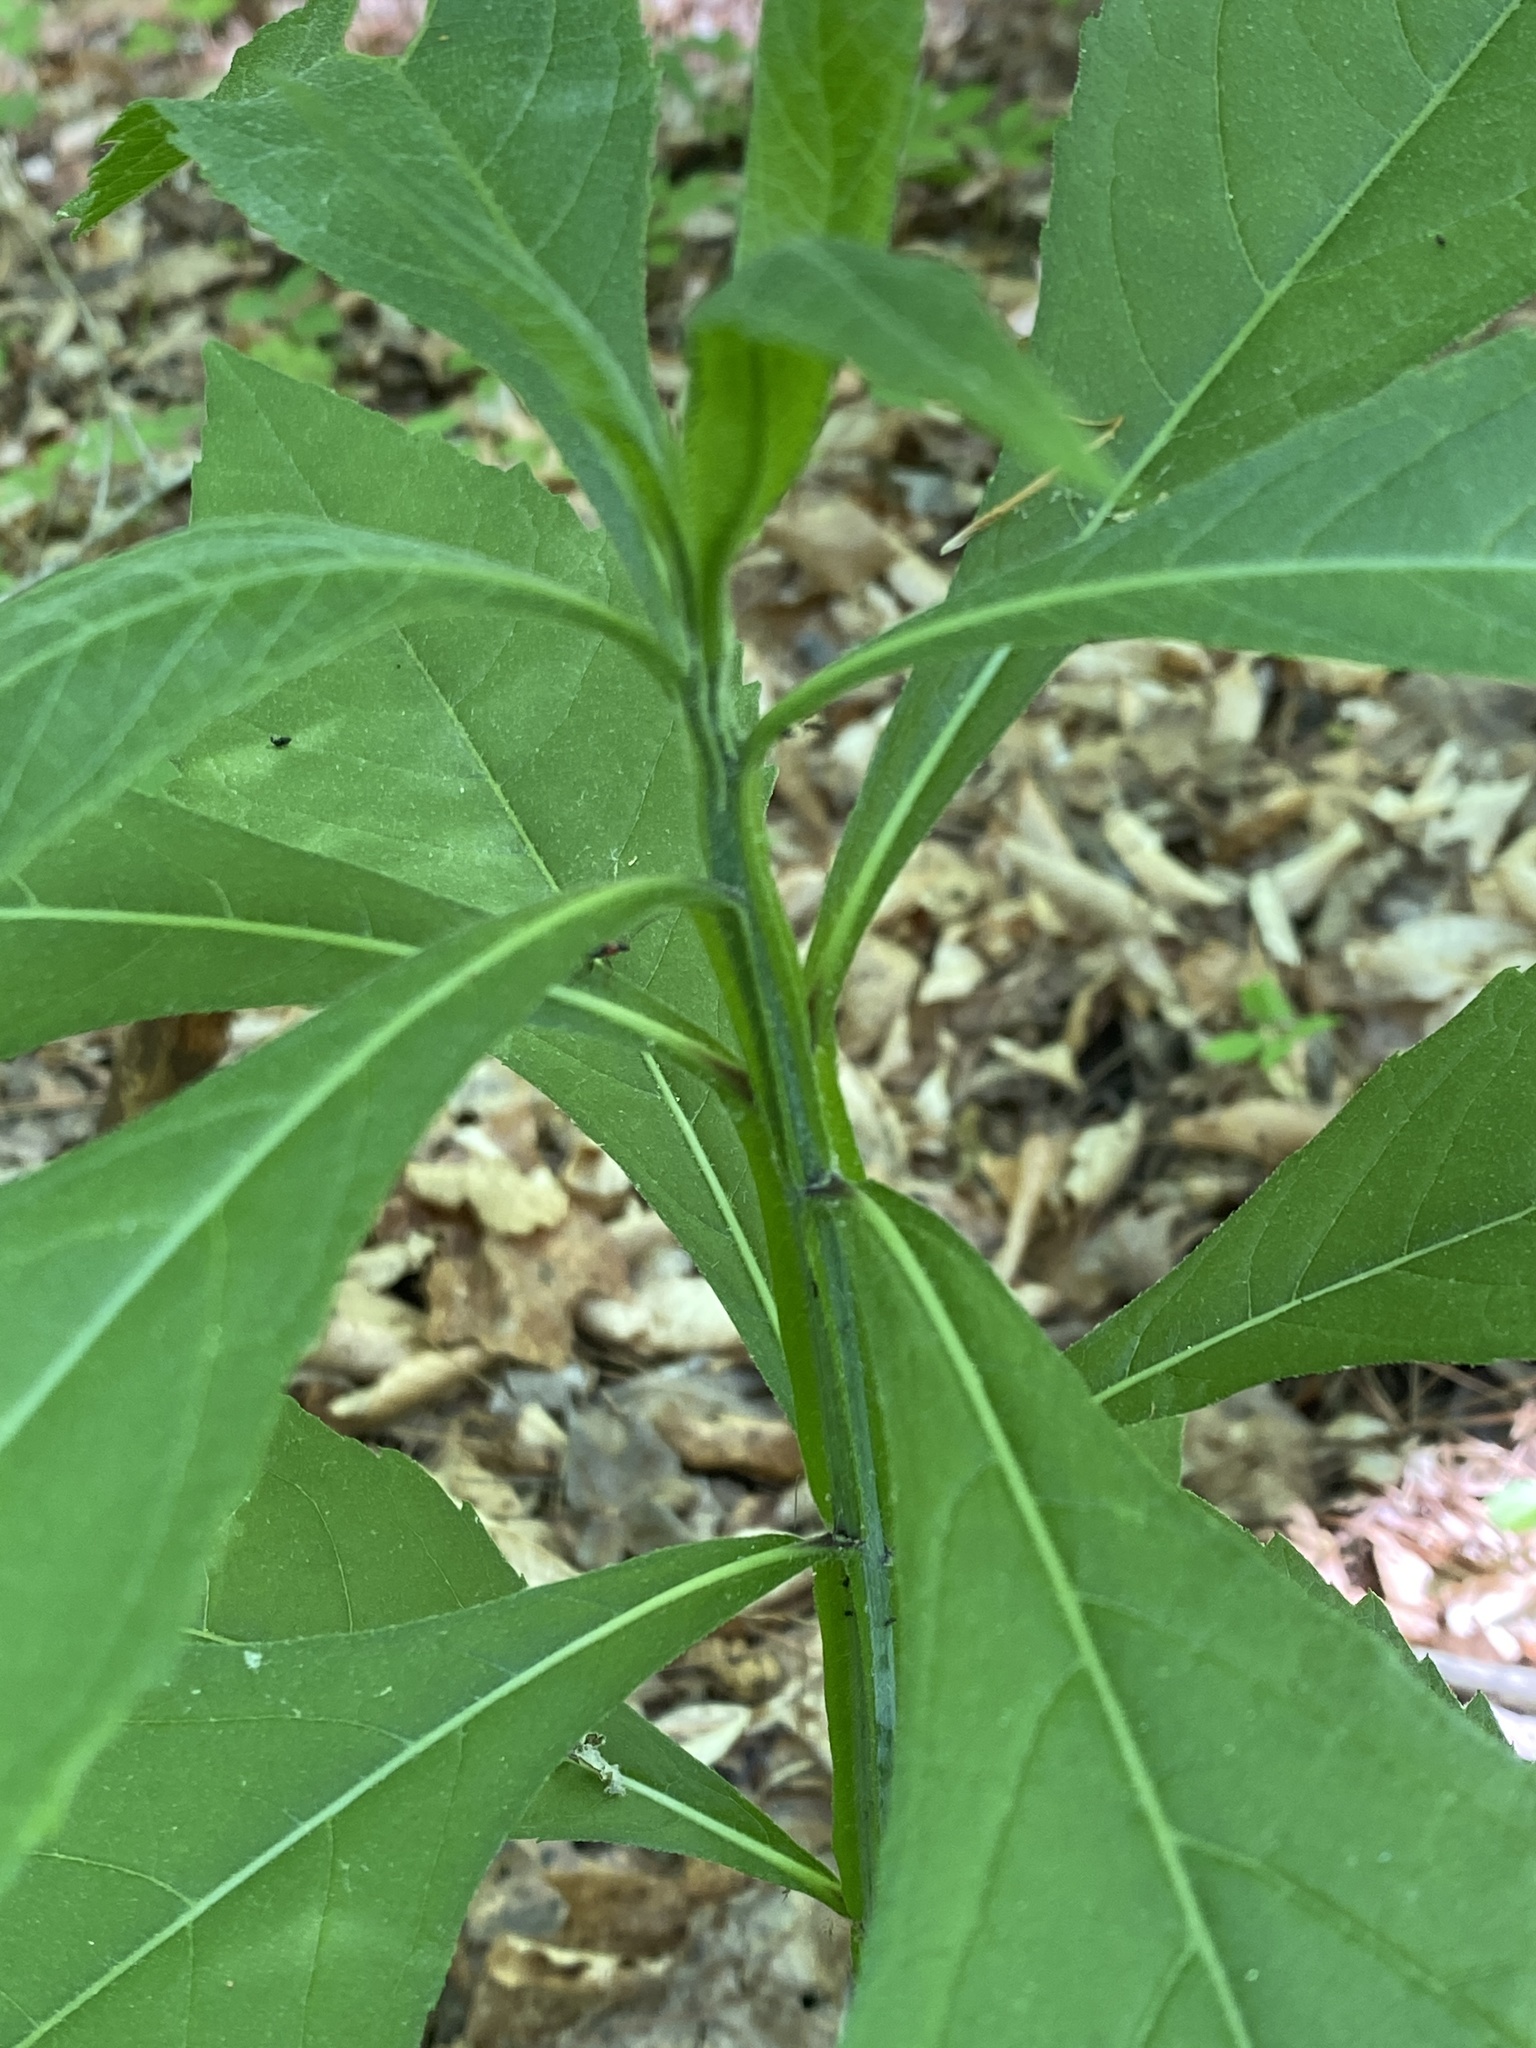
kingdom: Plantae
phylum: Tracheophyta
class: Magnoliopsida
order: Asterales
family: Asteraceae
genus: Verbesina
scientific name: Verbesina alternifolia
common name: Wingstem
